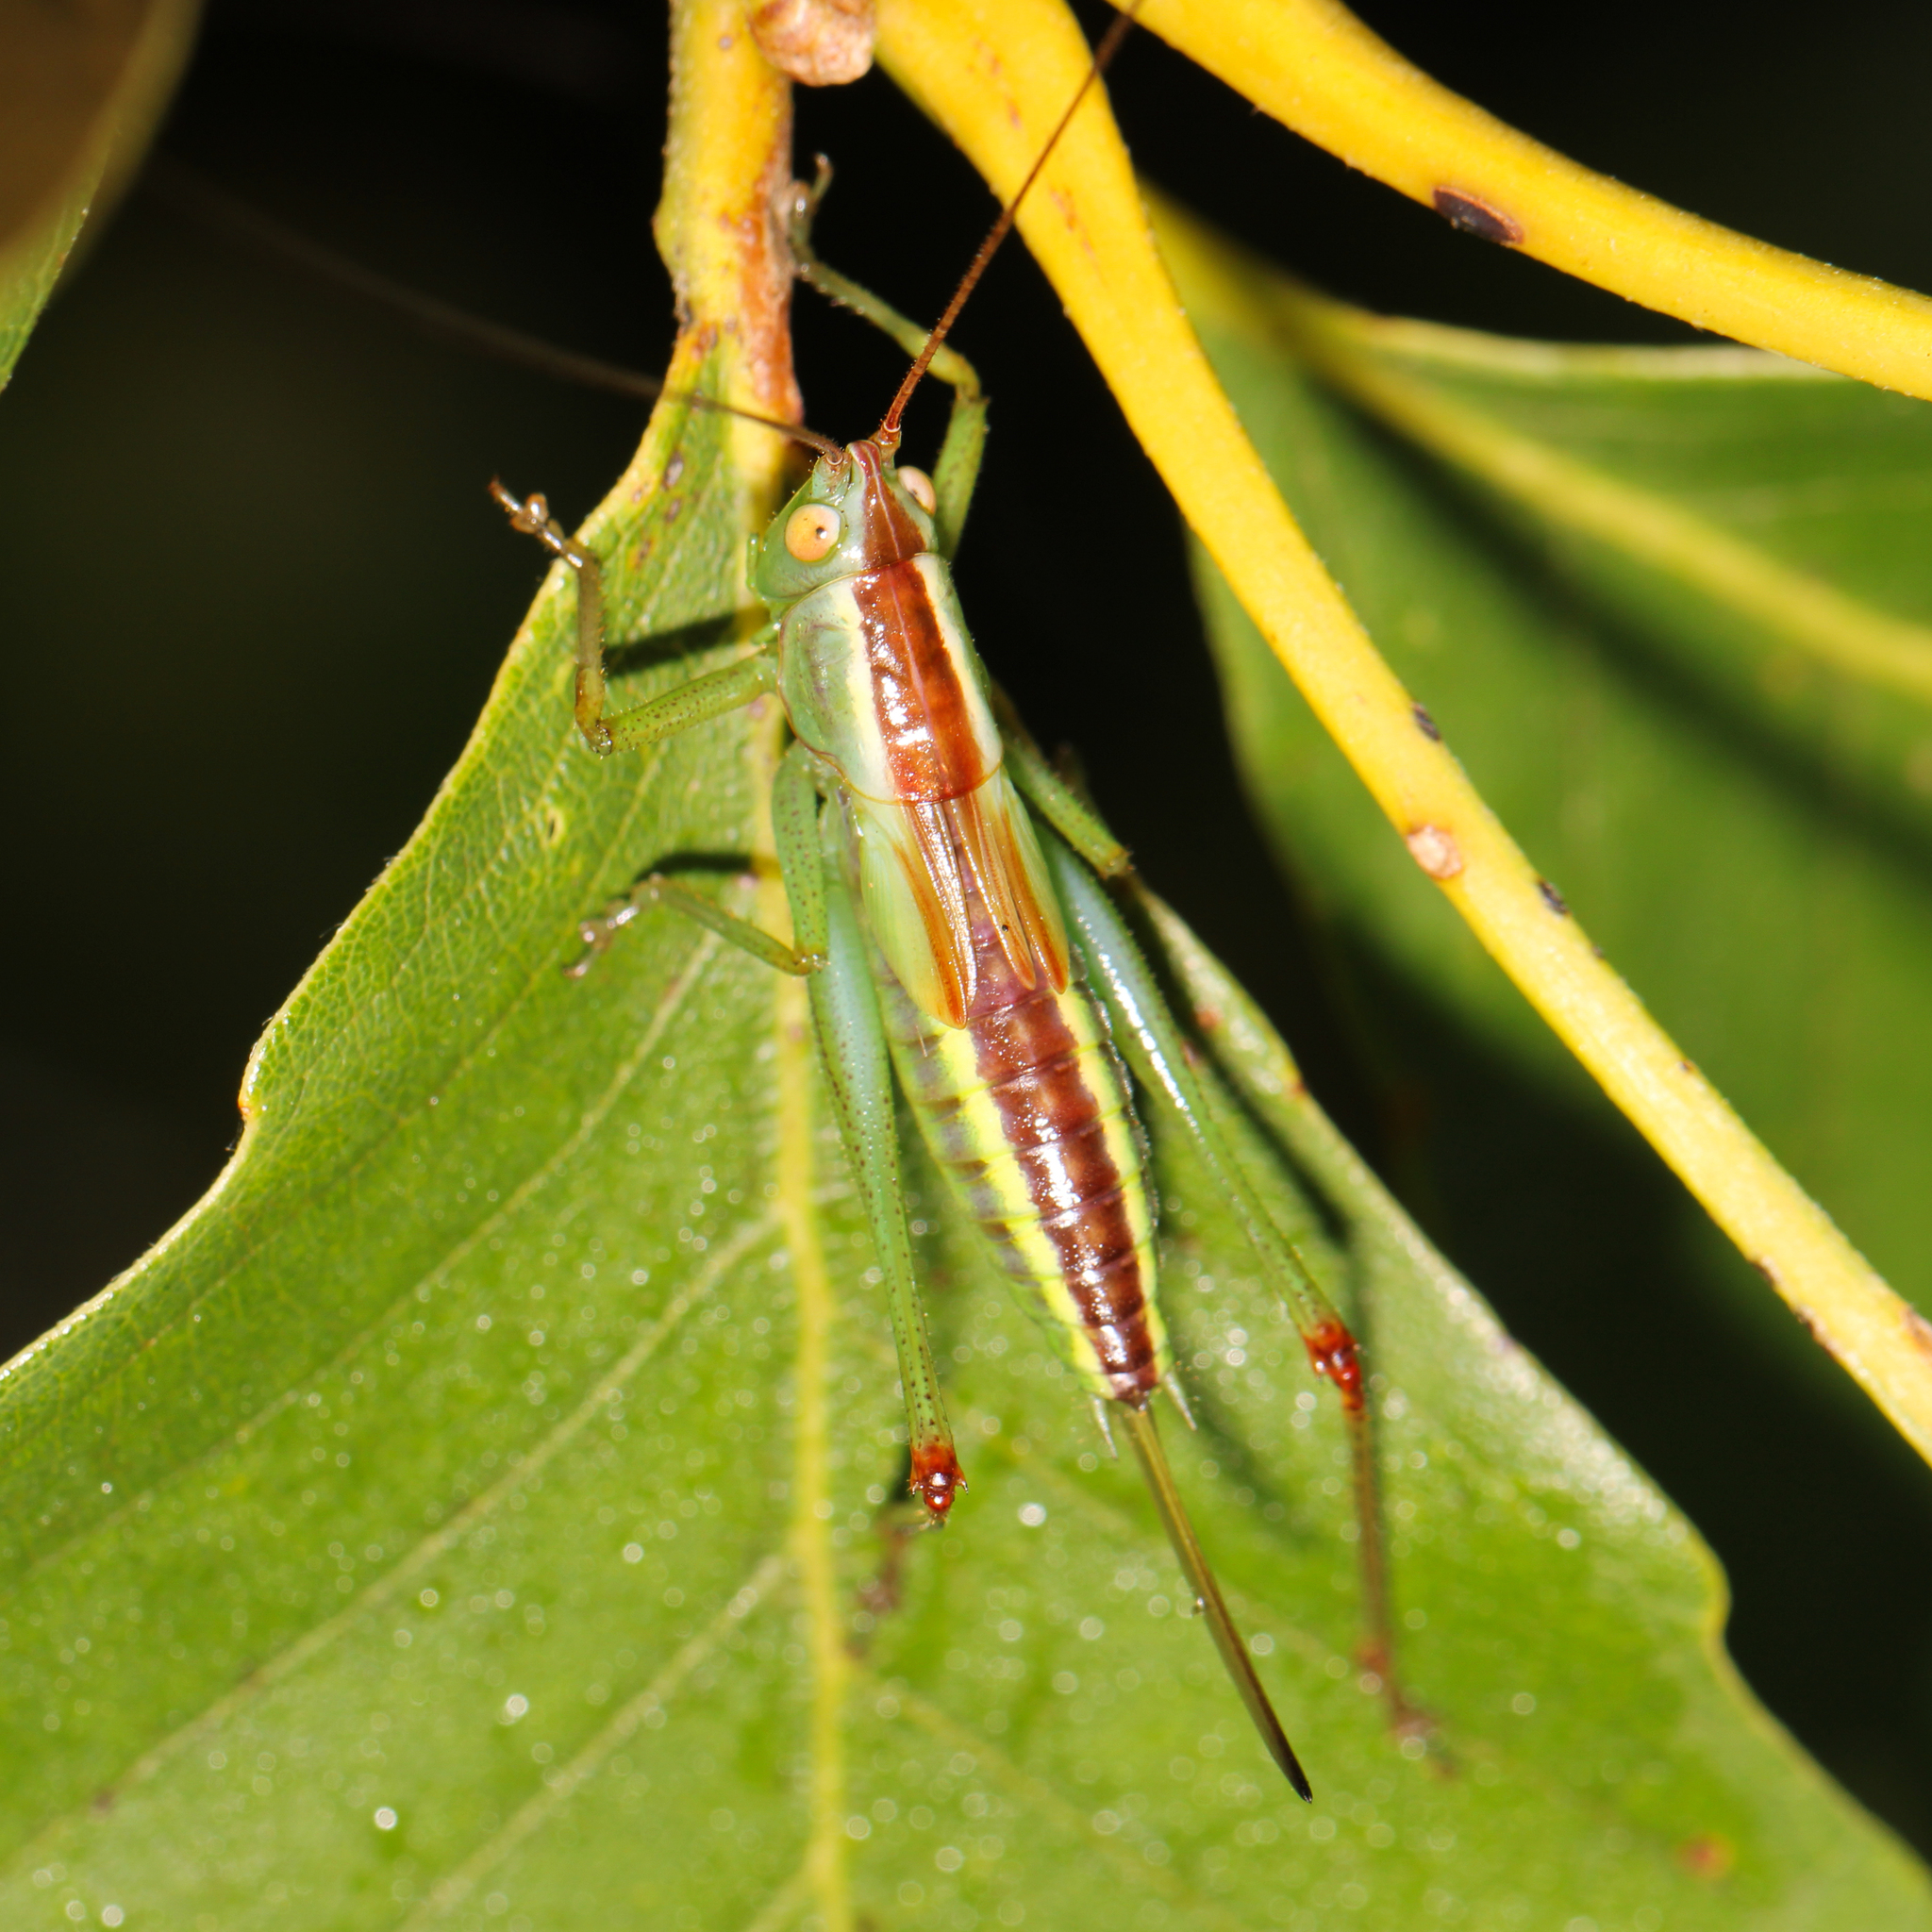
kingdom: Animalia
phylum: Arthropoda
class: Insecta
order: Orthoptera
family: Tettigoniidae
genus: Orchelimum
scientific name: Orchelimum minor
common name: Lesser pine meadow katydid
